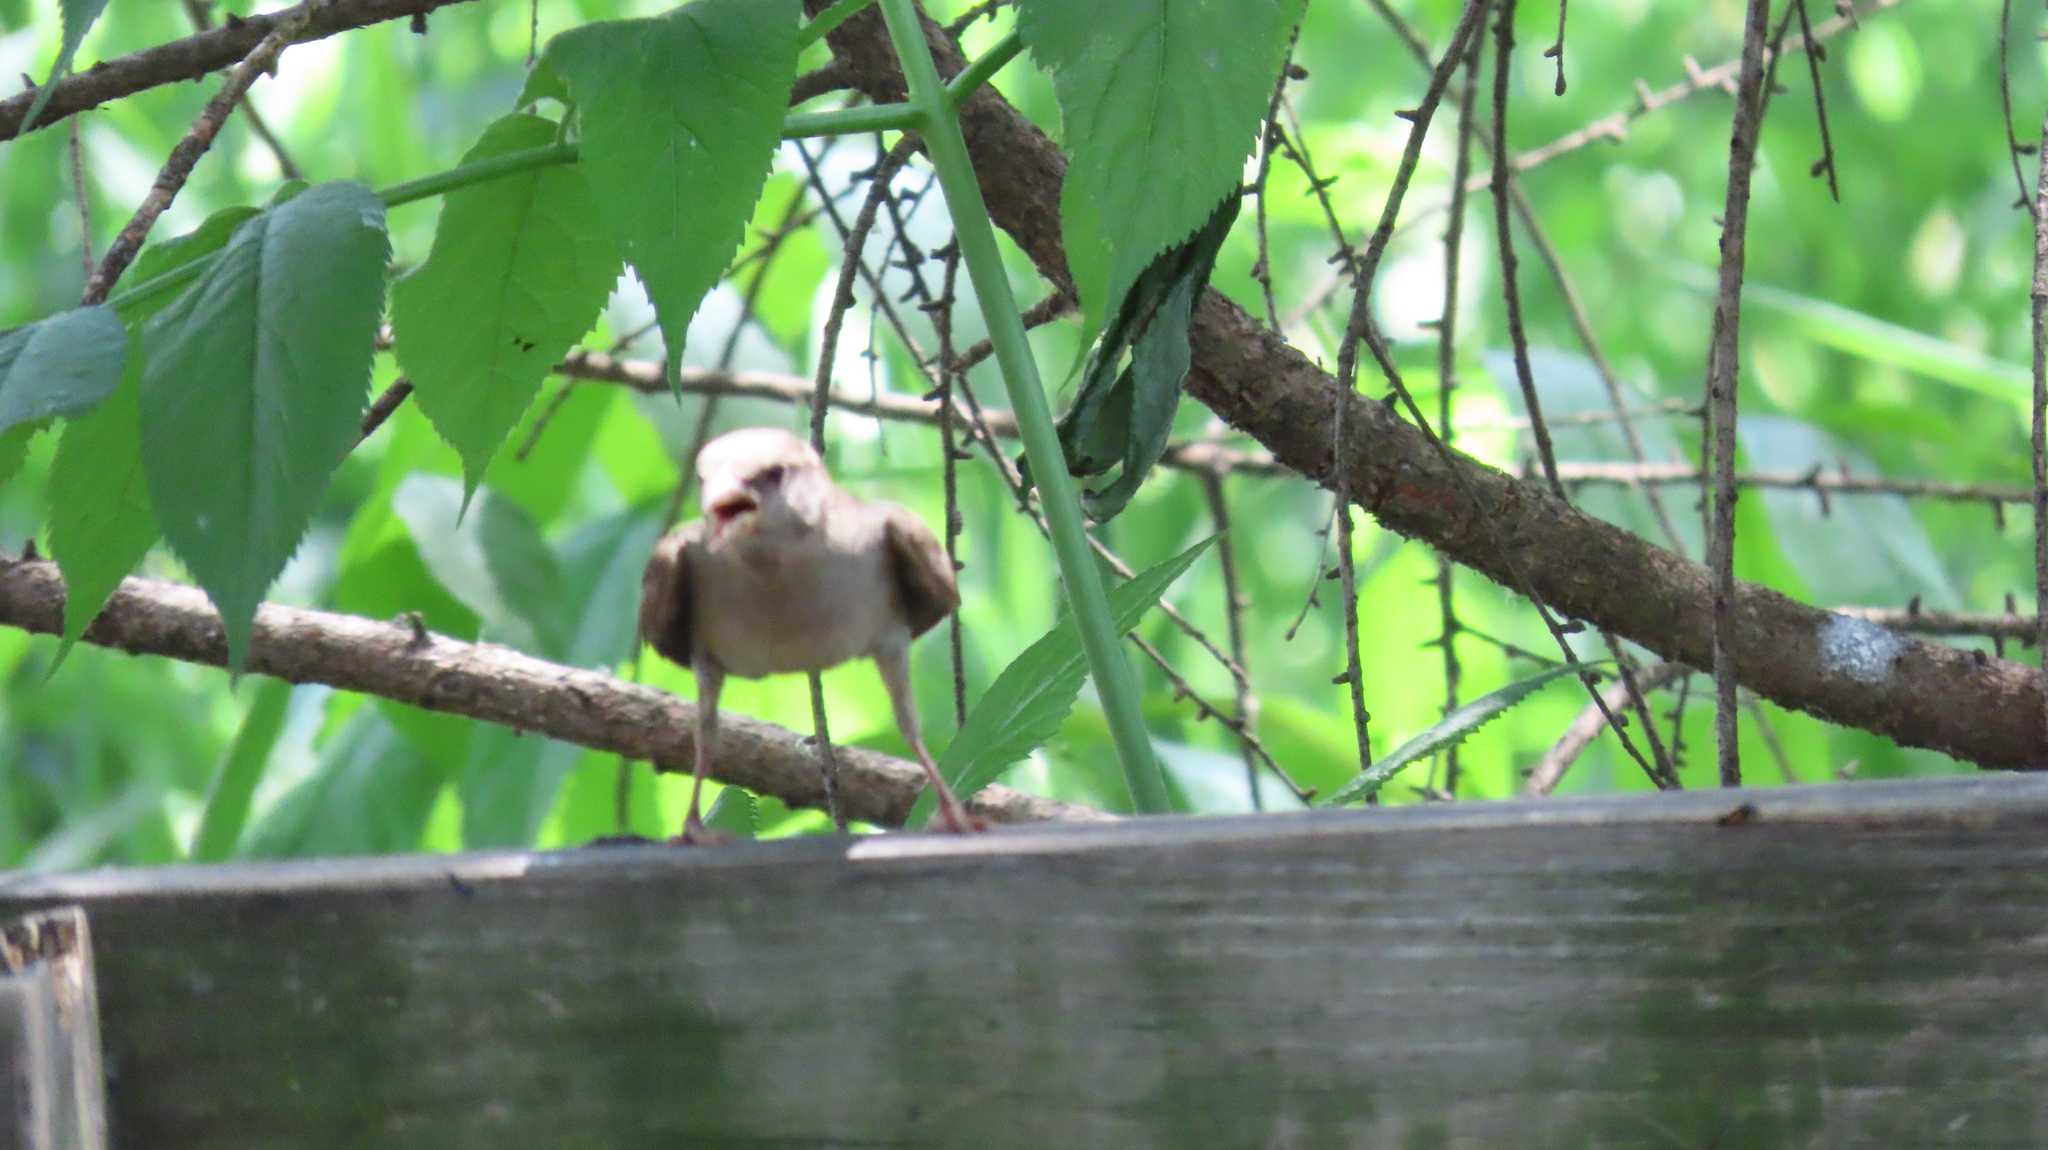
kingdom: Animalia
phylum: Chordata
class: Aves
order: Passeriformes
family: Troglodytidae
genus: Troglodytes
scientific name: Troglodytes aedon
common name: House wren
